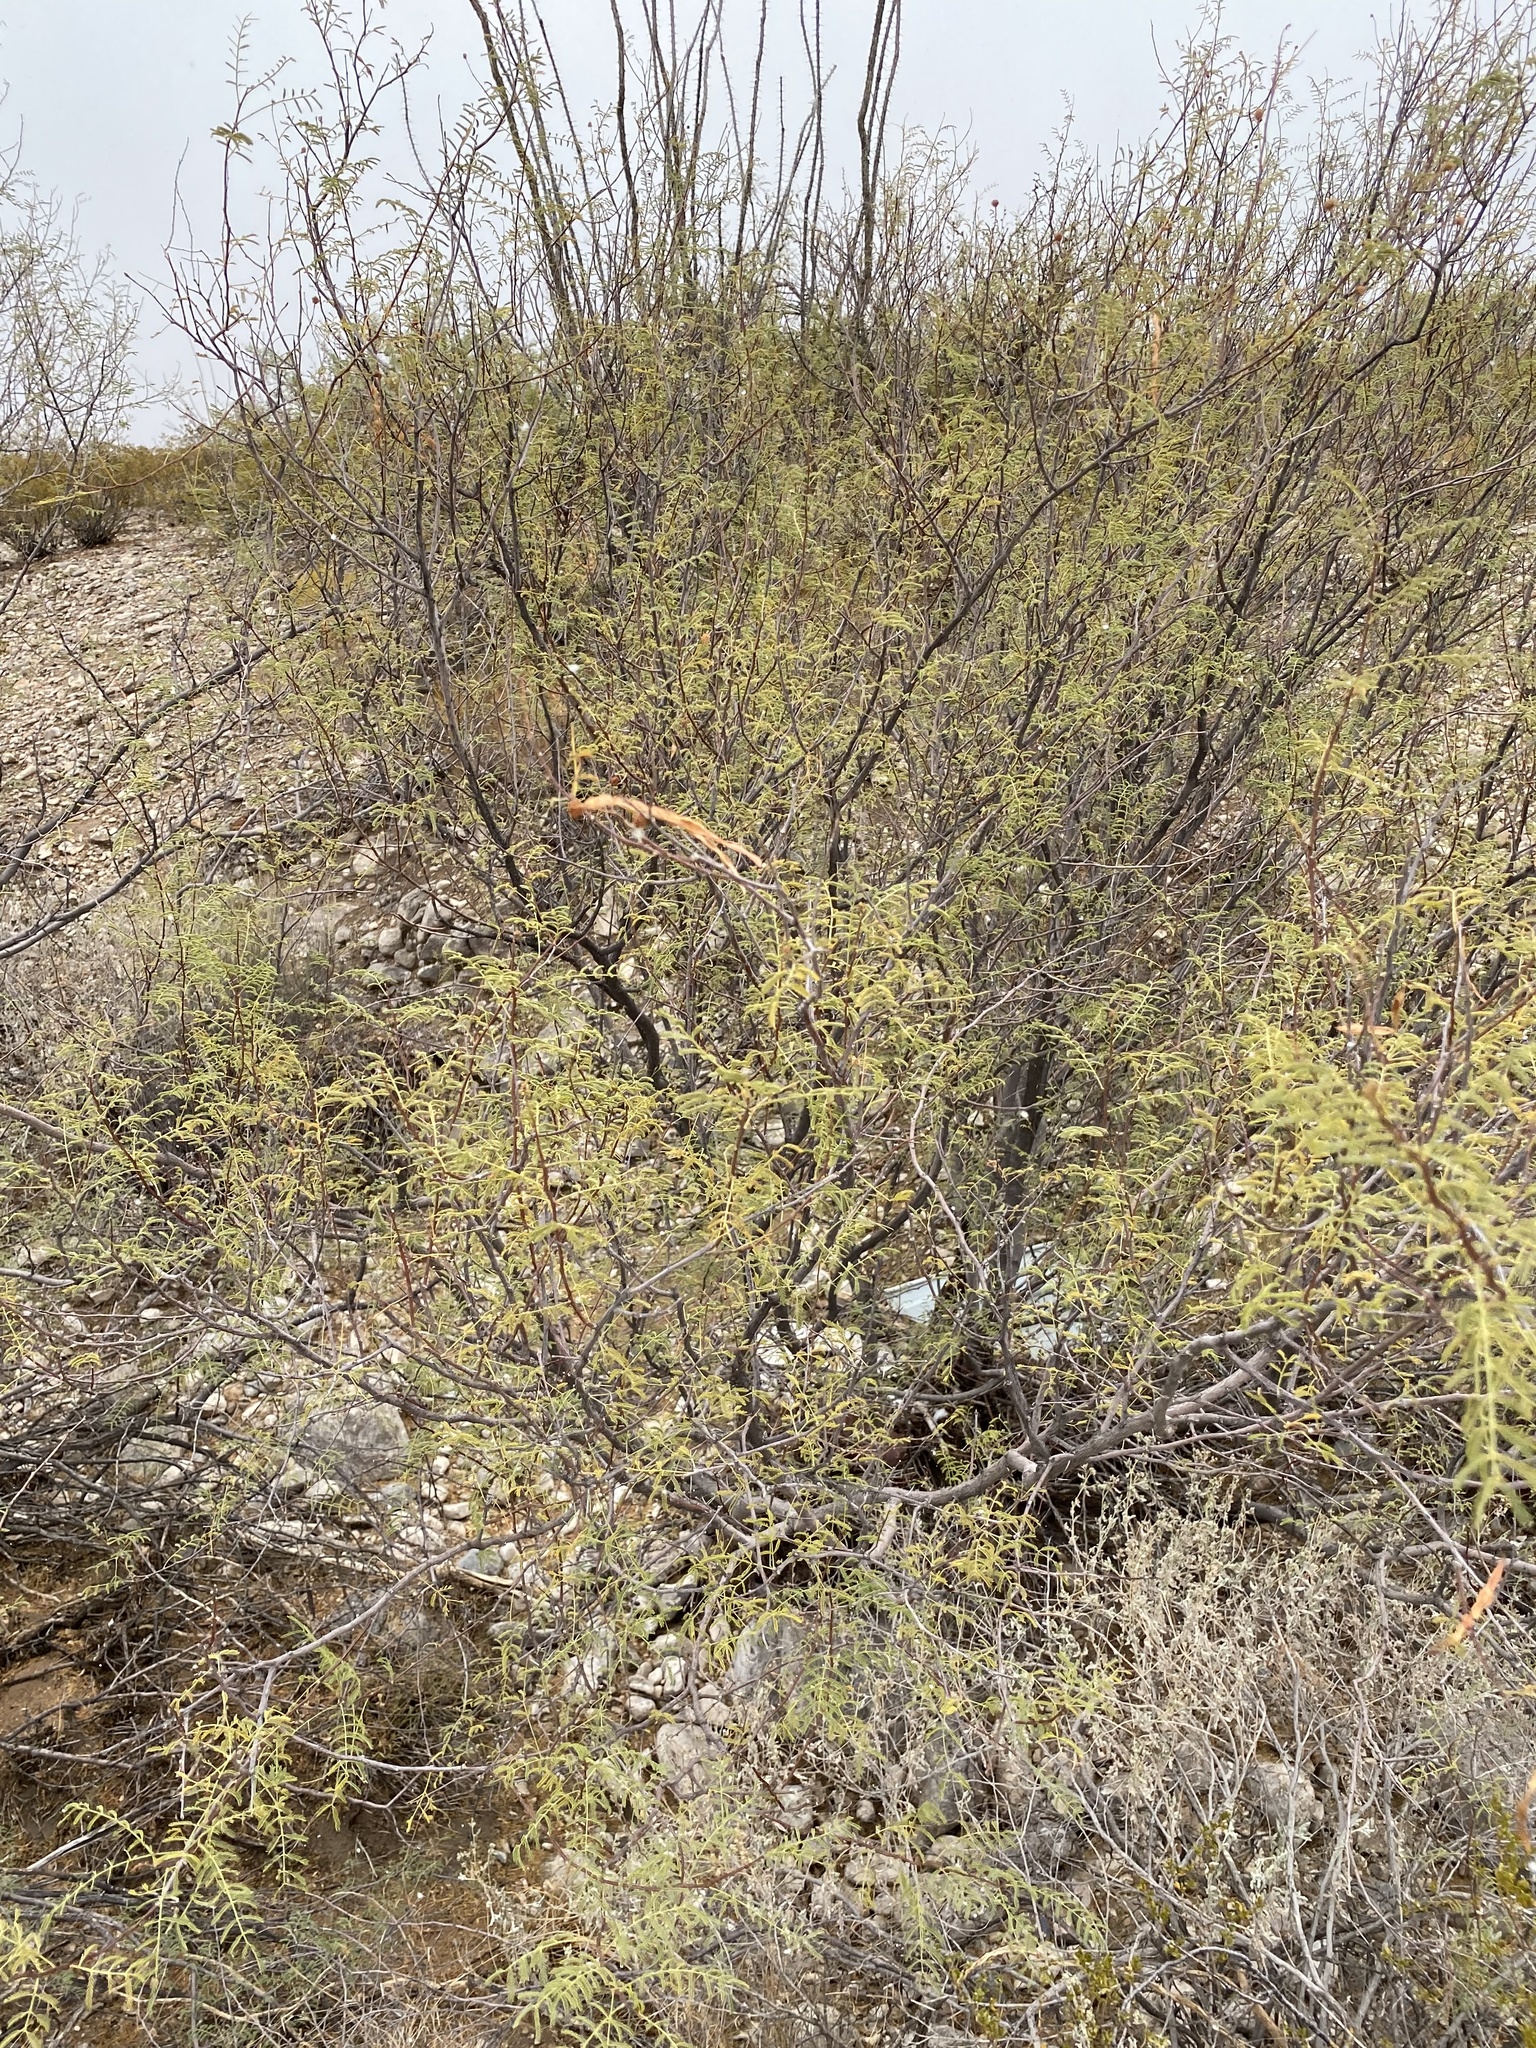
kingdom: Plantae
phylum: Tracheophyta
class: Magnoliopsida
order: Fabales
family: Fabaceae
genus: Vachellia
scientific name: Vachellia constricta
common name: Mescat acacia
